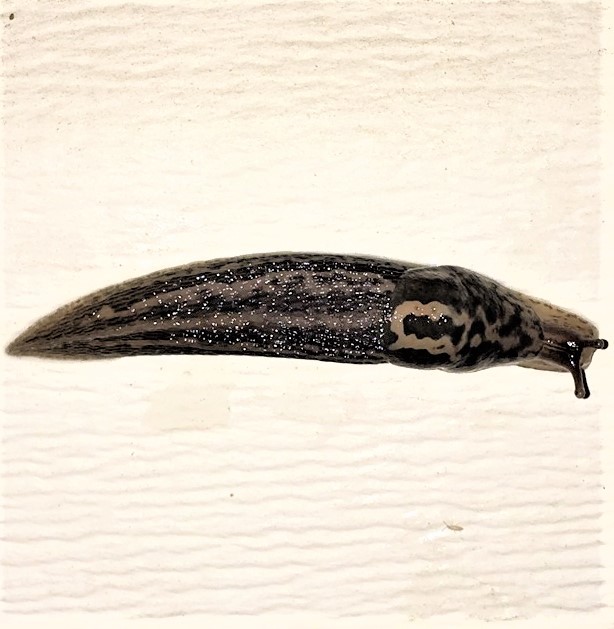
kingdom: Animalia
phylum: Mollusca
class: Gastropoda
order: Stylommatophora
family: Limacidae
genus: Limax
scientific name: Limax maximus
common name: Great grey slug
